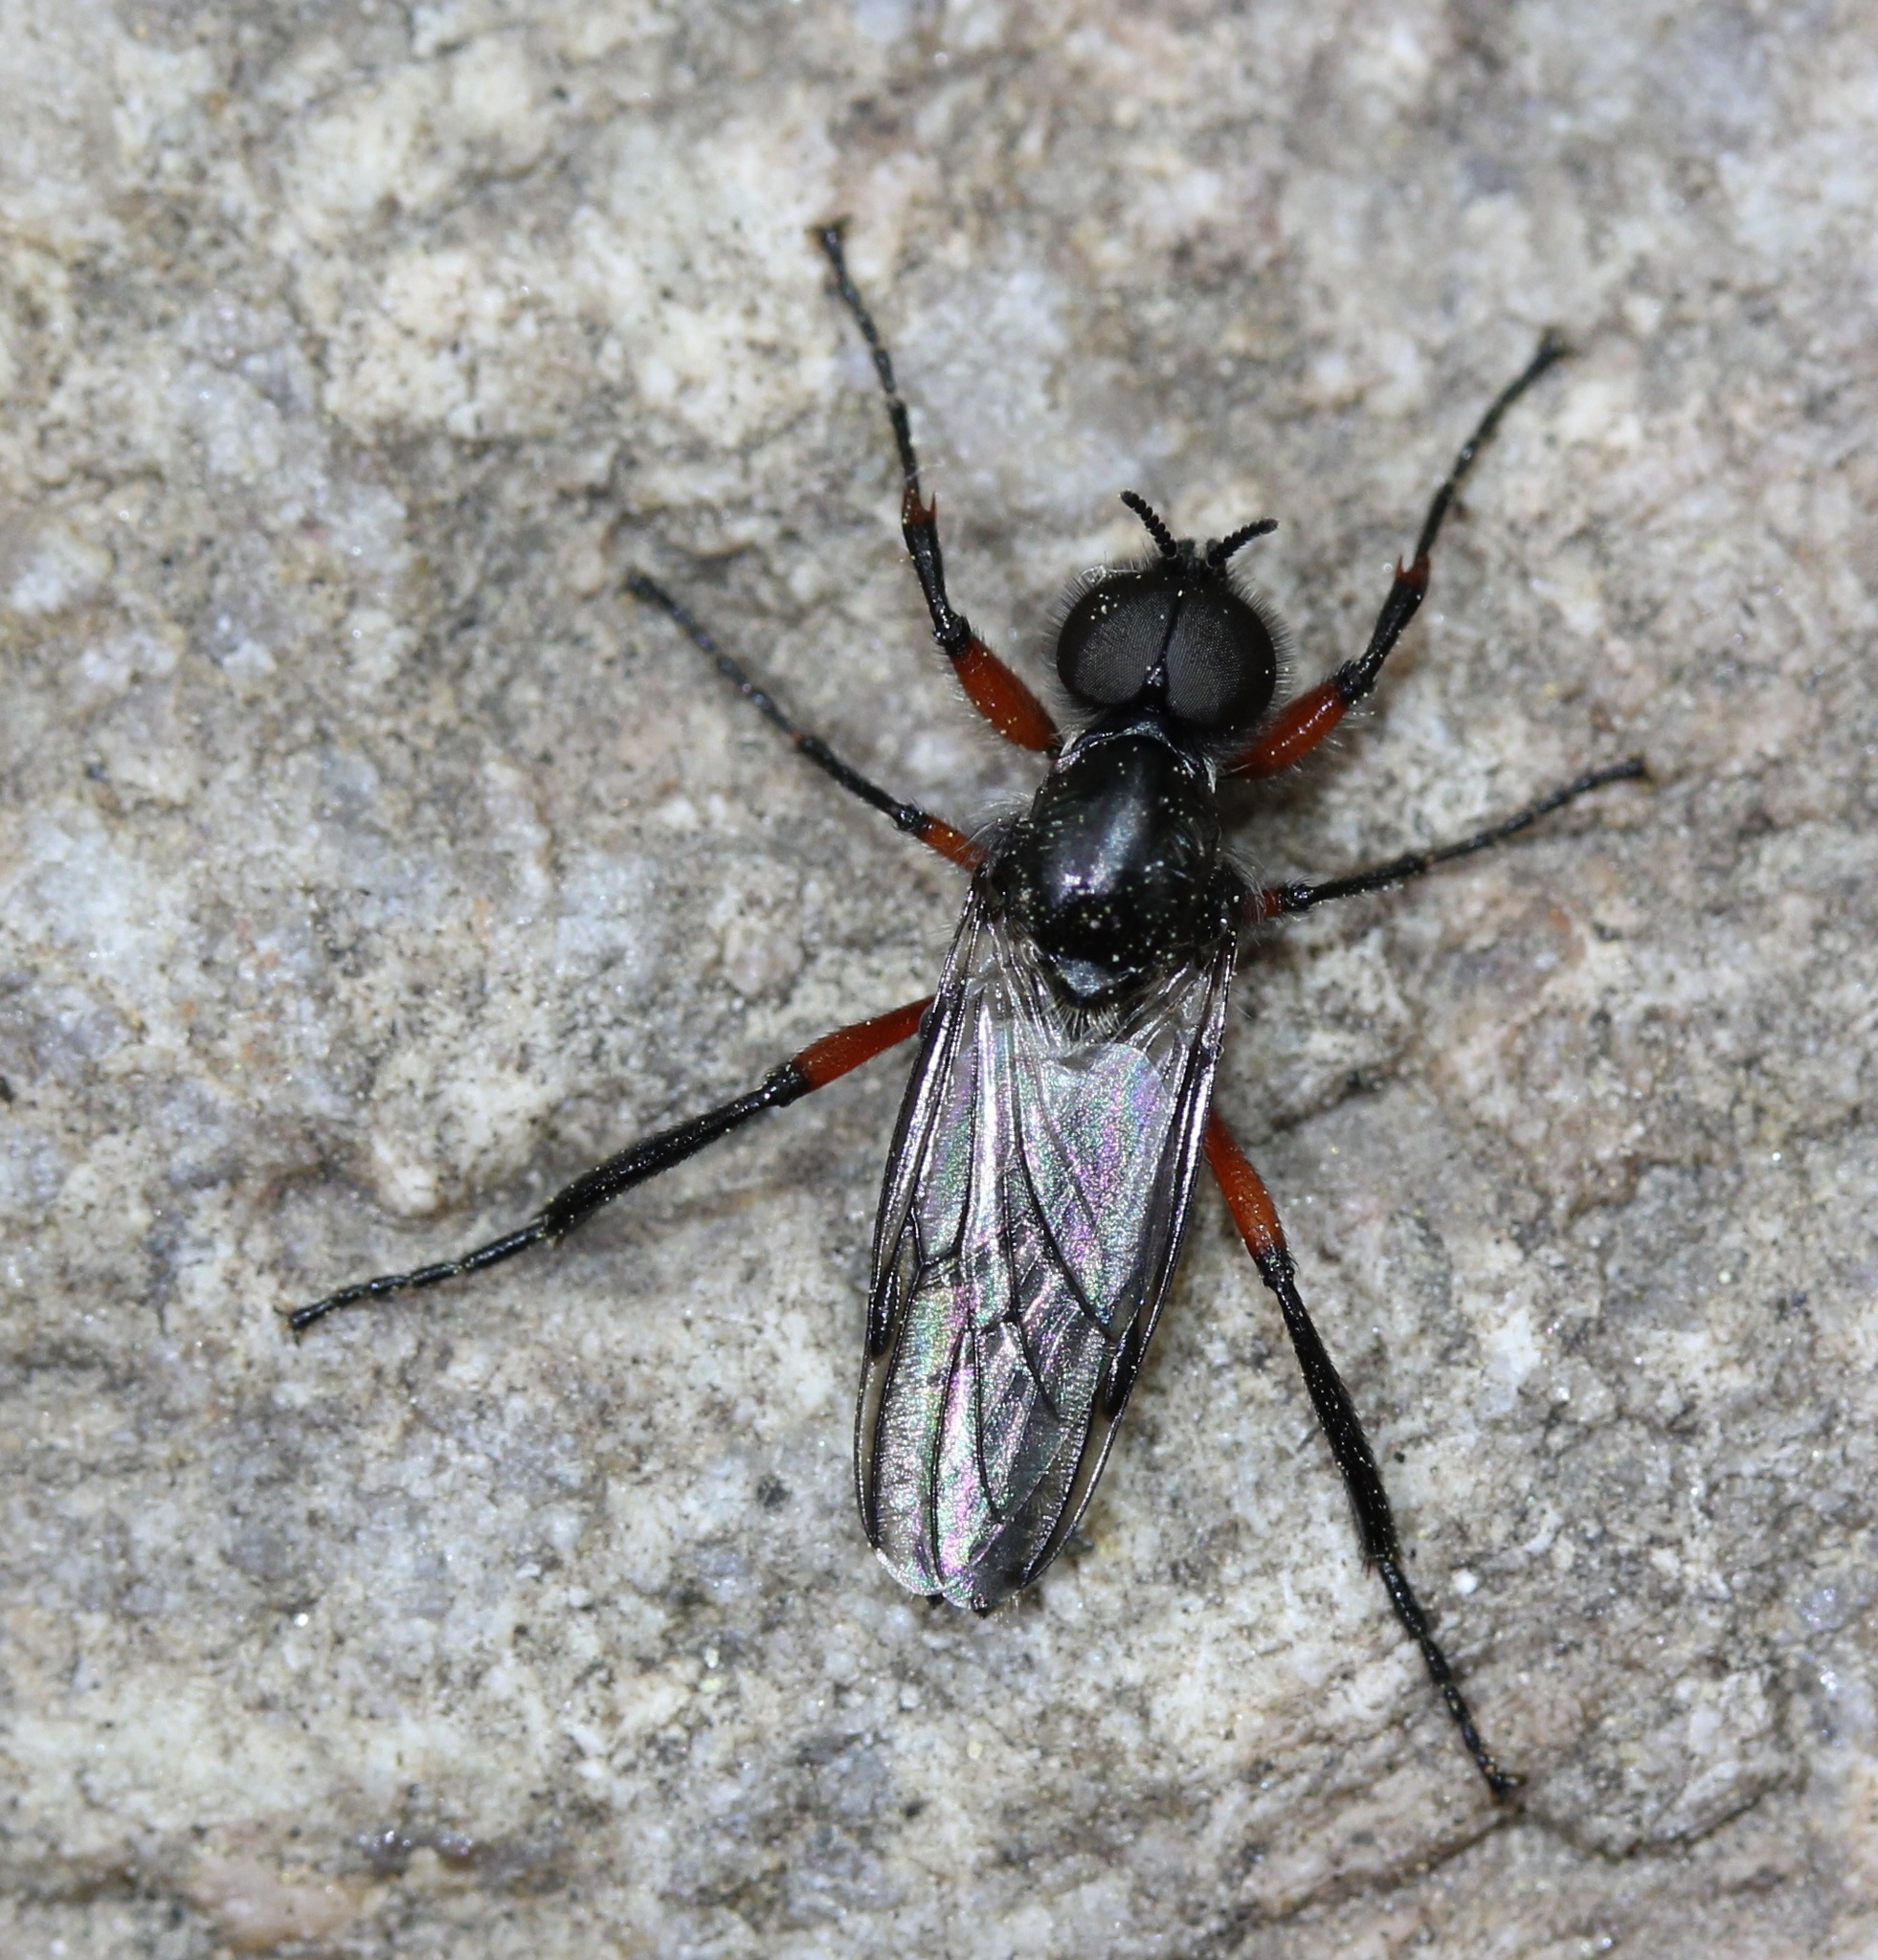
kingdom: Animalia
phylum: Arthropoda
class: Insecta
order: Diptera
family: Bibionidae
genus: Bibio
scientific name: Bibio femoratus
